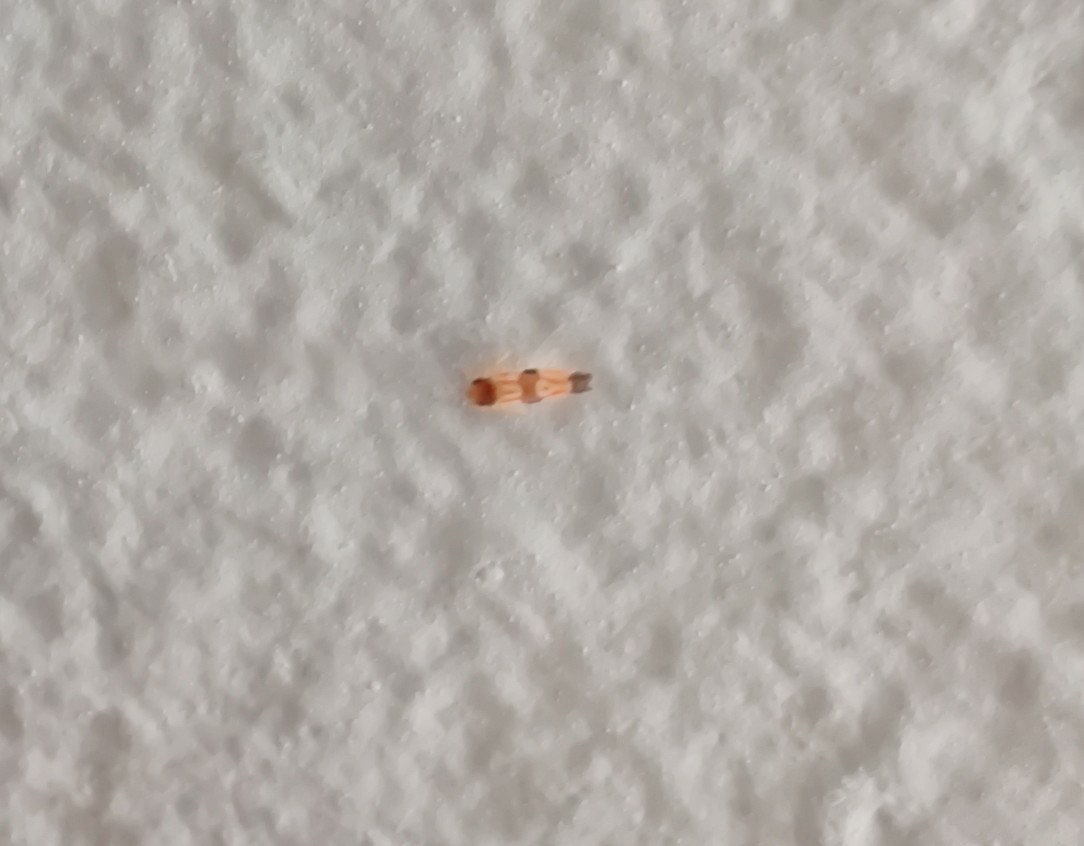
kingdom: Animalia
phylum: Arthropoda
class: Insecta
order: Hemiptera
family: Cicadellidae
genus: Erythroneura
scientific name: Erythroneura carinata
